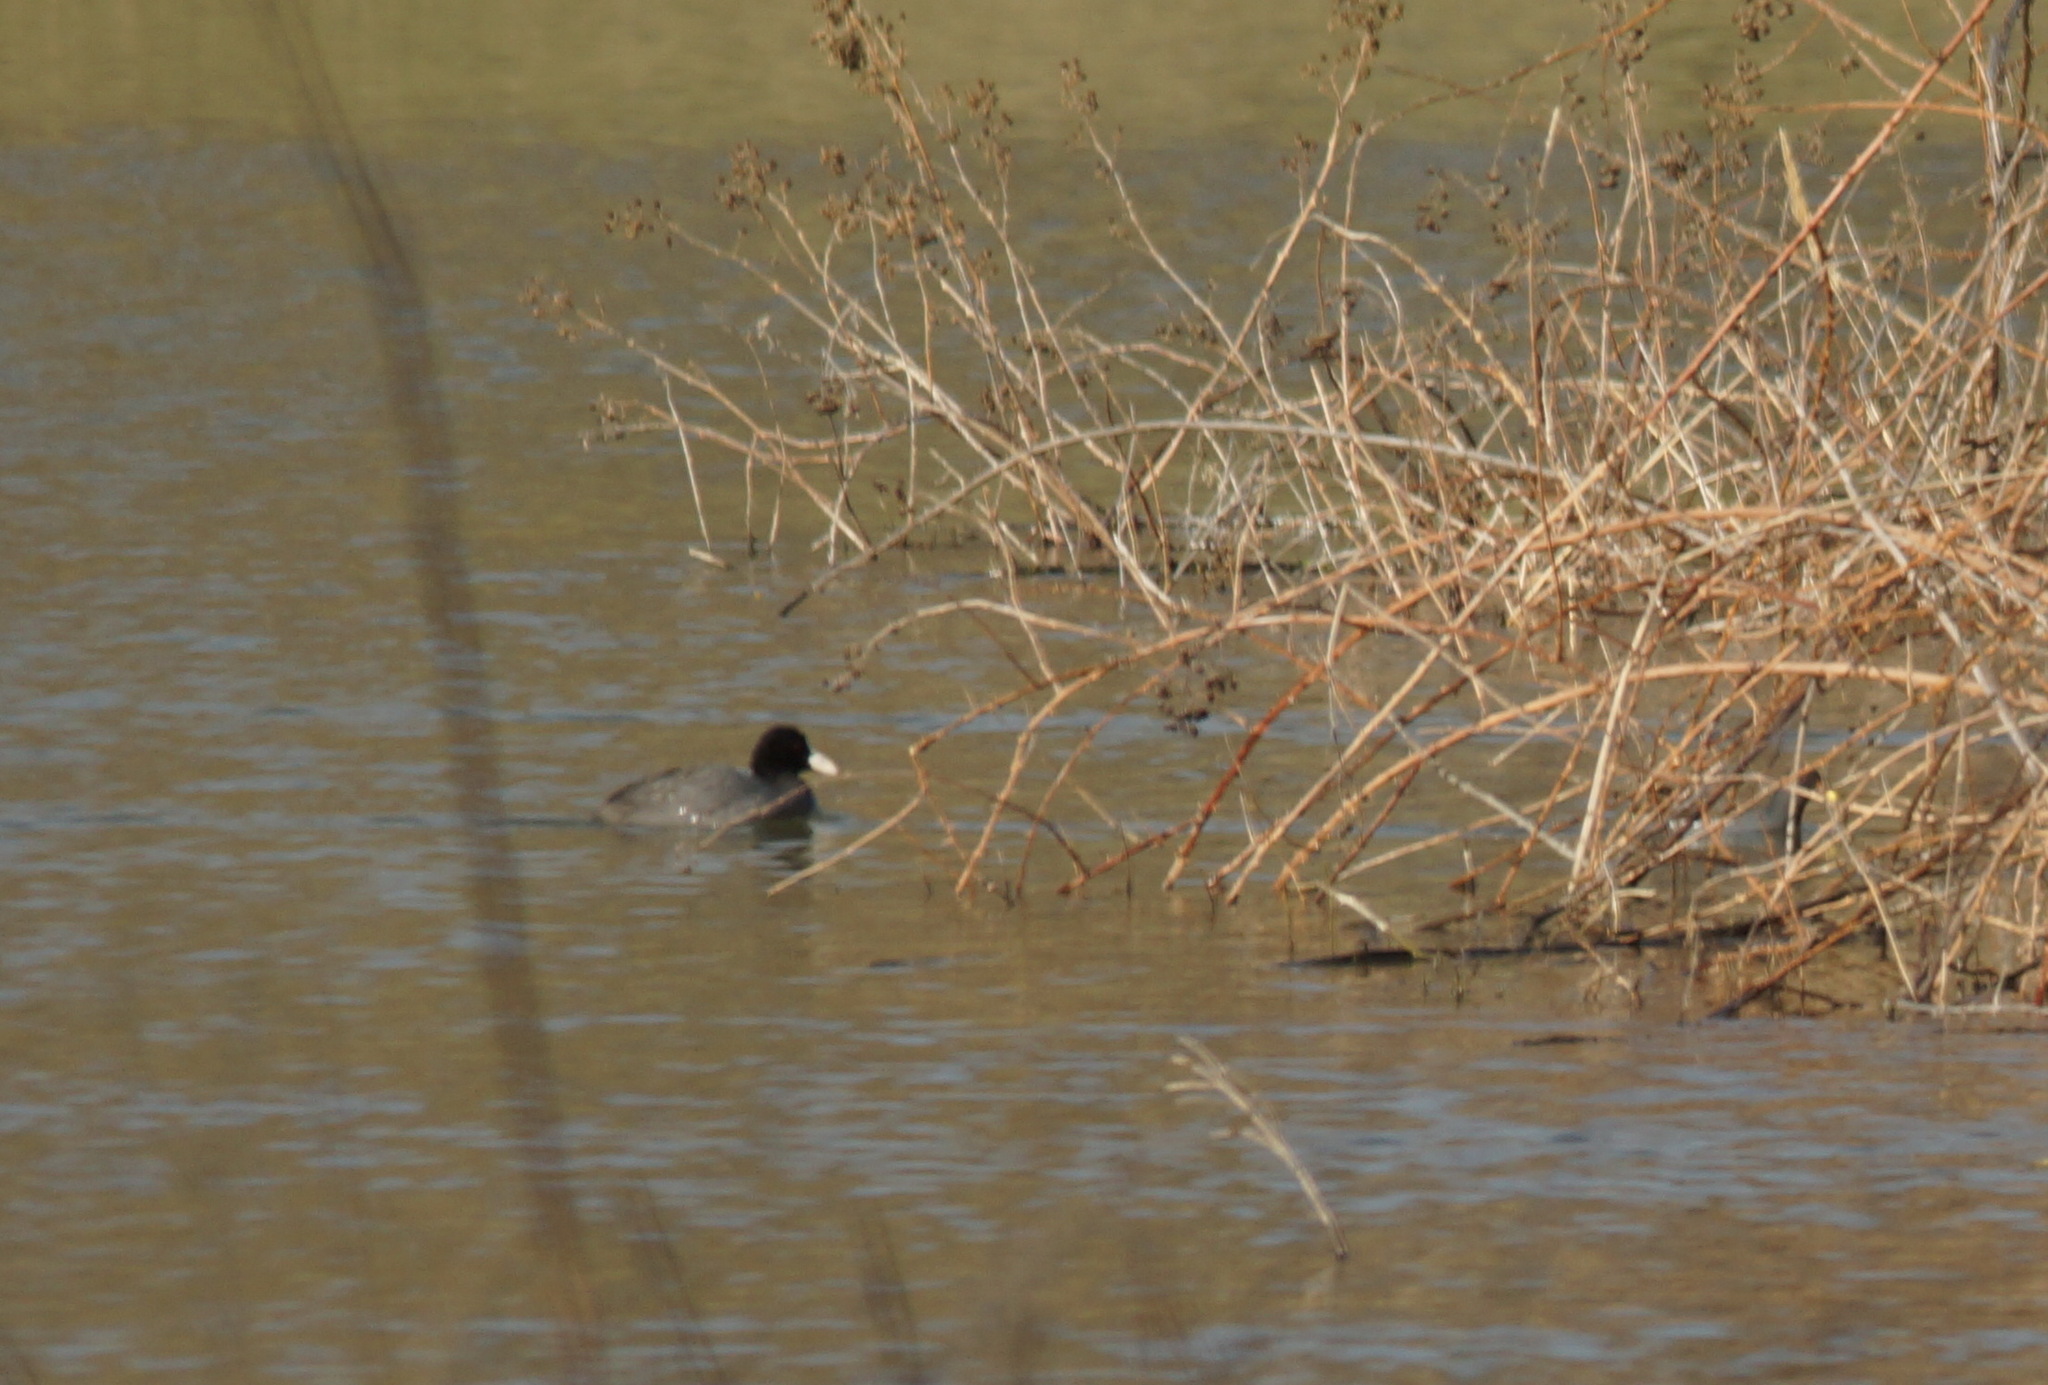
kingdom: Animalia
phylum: Chordata
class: Aves
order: Gruiformes
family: Rallidae
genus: Fulica
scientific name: Fulica atra
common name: Eurasian coot
